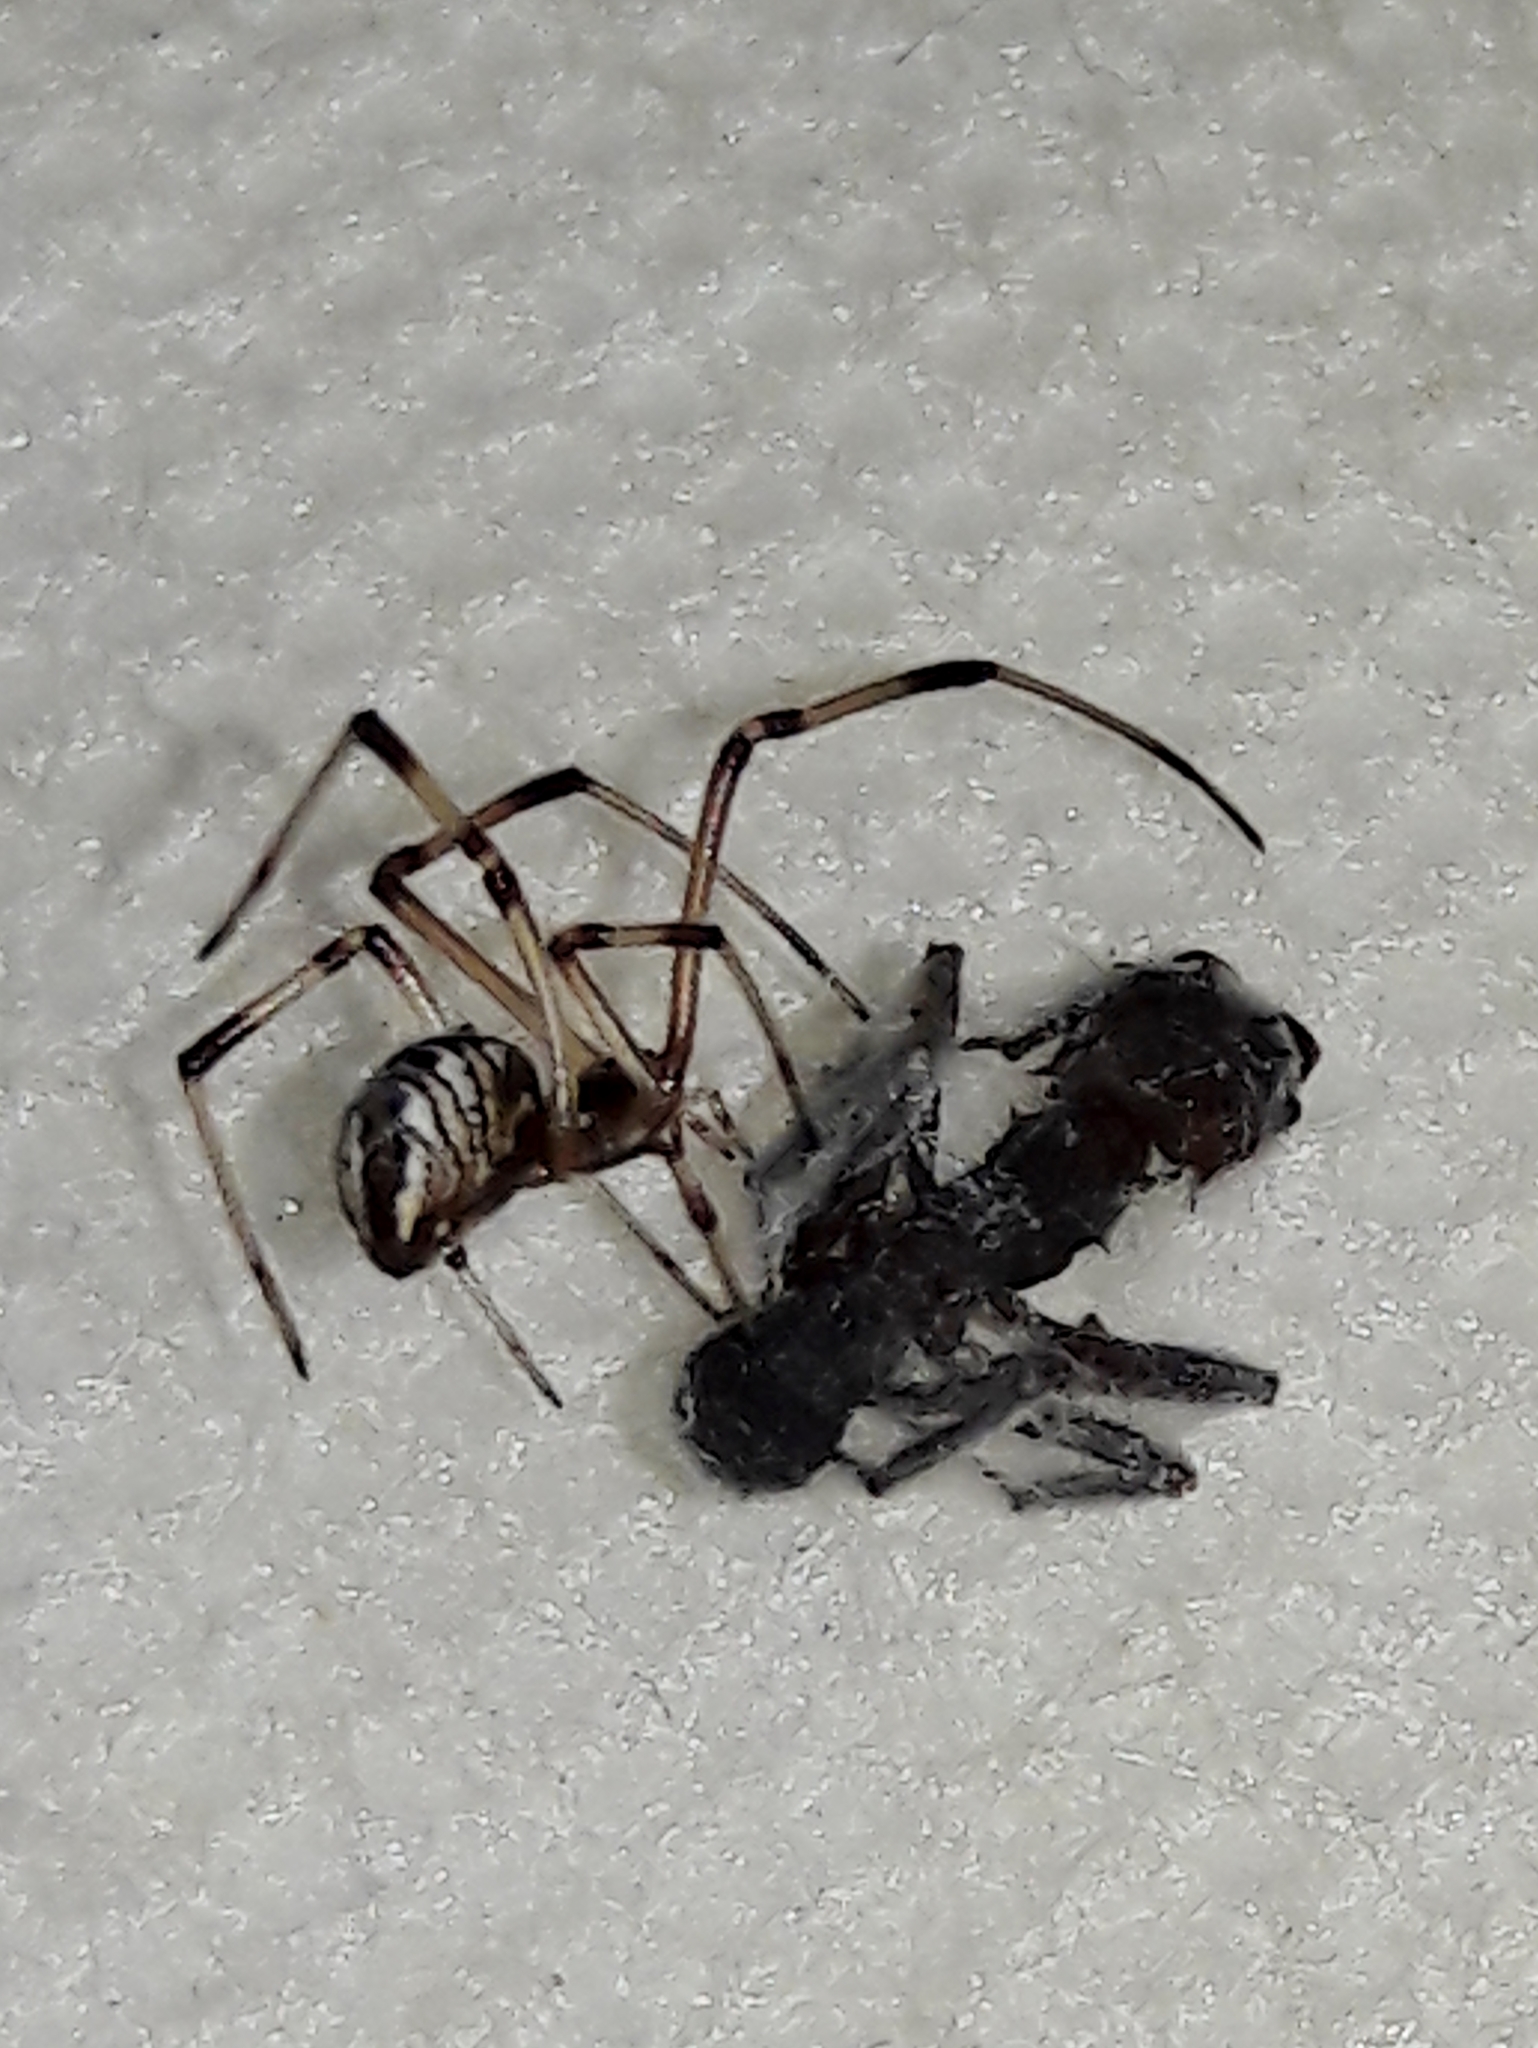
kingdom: Animalia
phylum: Arthropoda
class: Arachnida
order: Araneae
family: Theridiidae
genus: Latrodectus
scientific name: Latrodectus geometricus
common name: Brown widow spider
